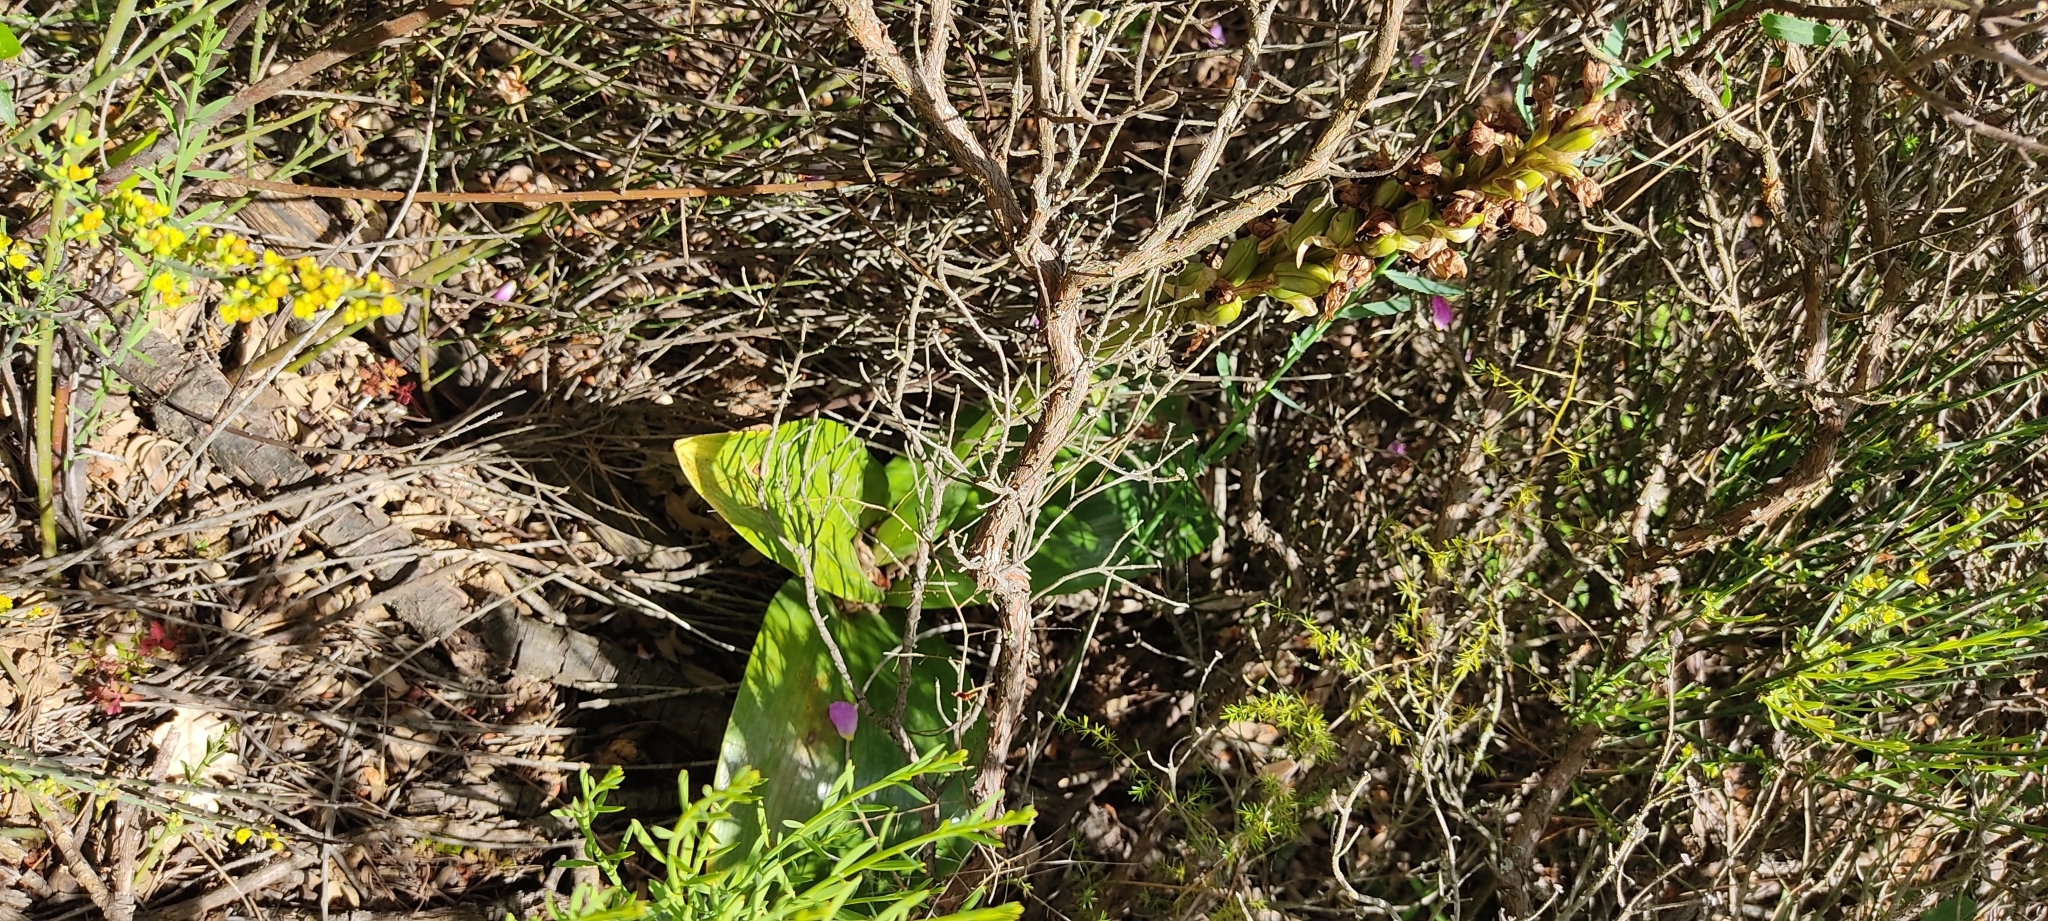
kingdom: Plantae
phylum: Tracheophyta
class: Liliopsida
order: Asparagales
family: Orchidaceae
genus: Himantoglossum
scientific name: Himantoglossum robertianum
